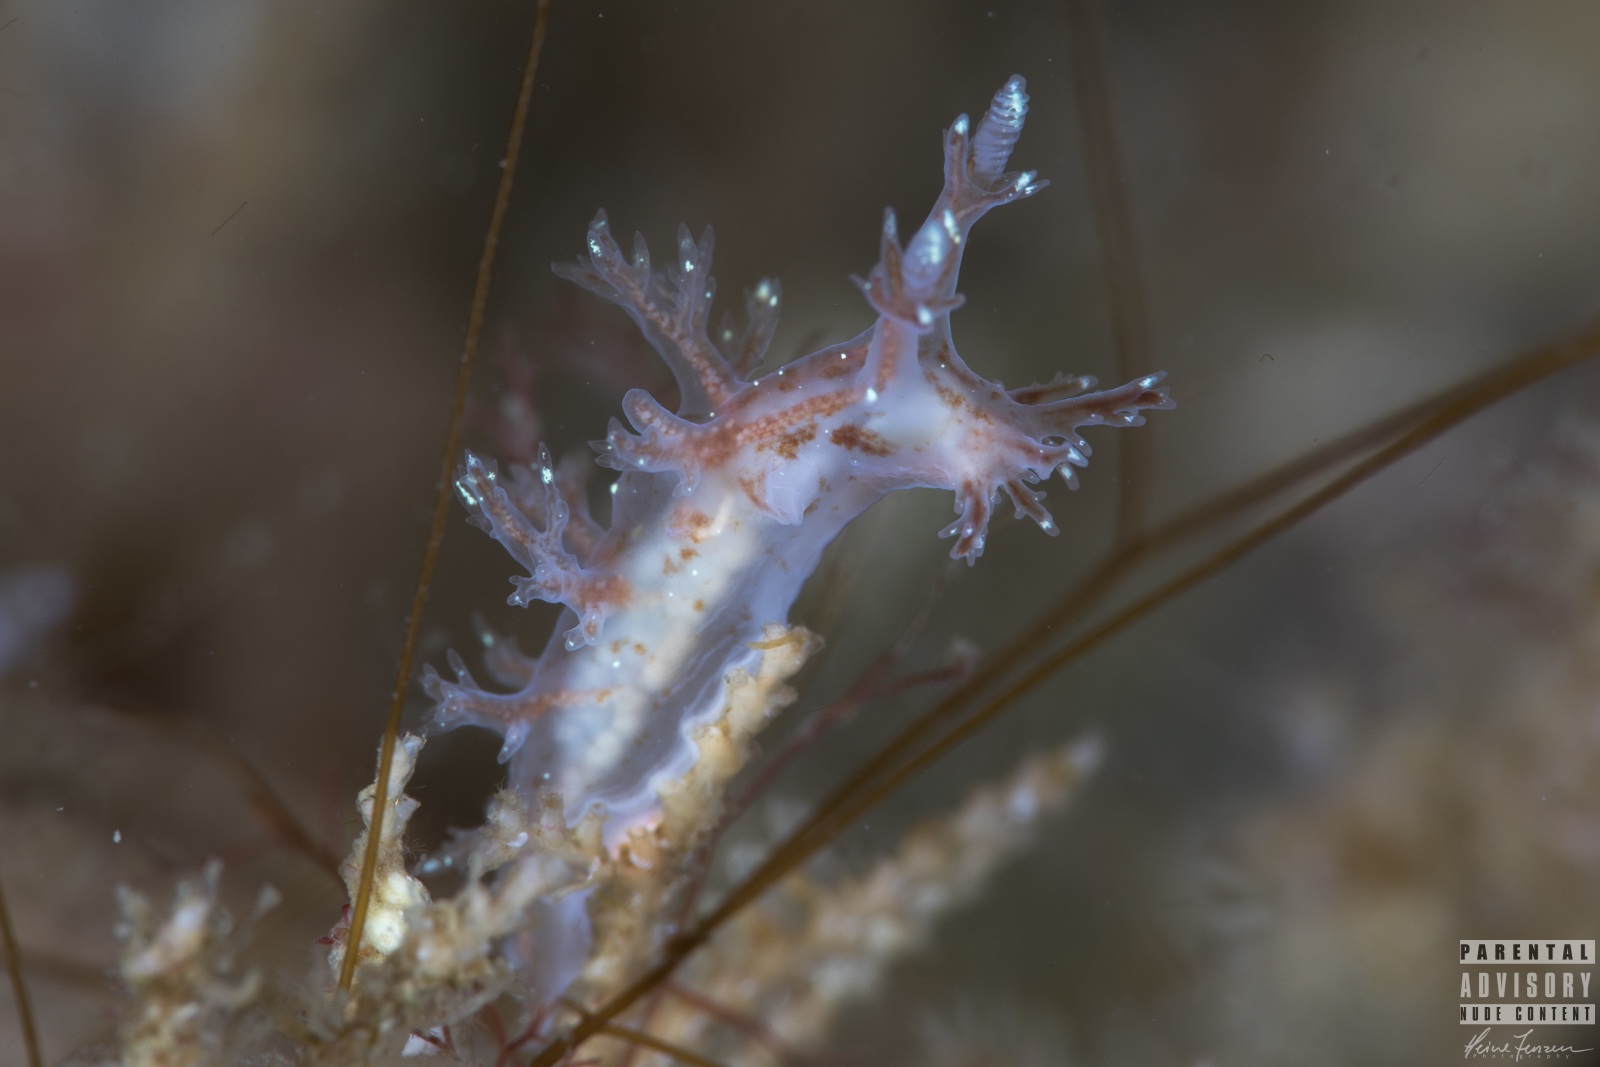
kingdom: Animalia
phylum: Mollusca
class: Gastropoda
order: Nudibranchia
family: Dendronotidae
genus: Dendronotus
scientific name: Dendronotus frondosus
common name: Bushy-backed nudibranch
